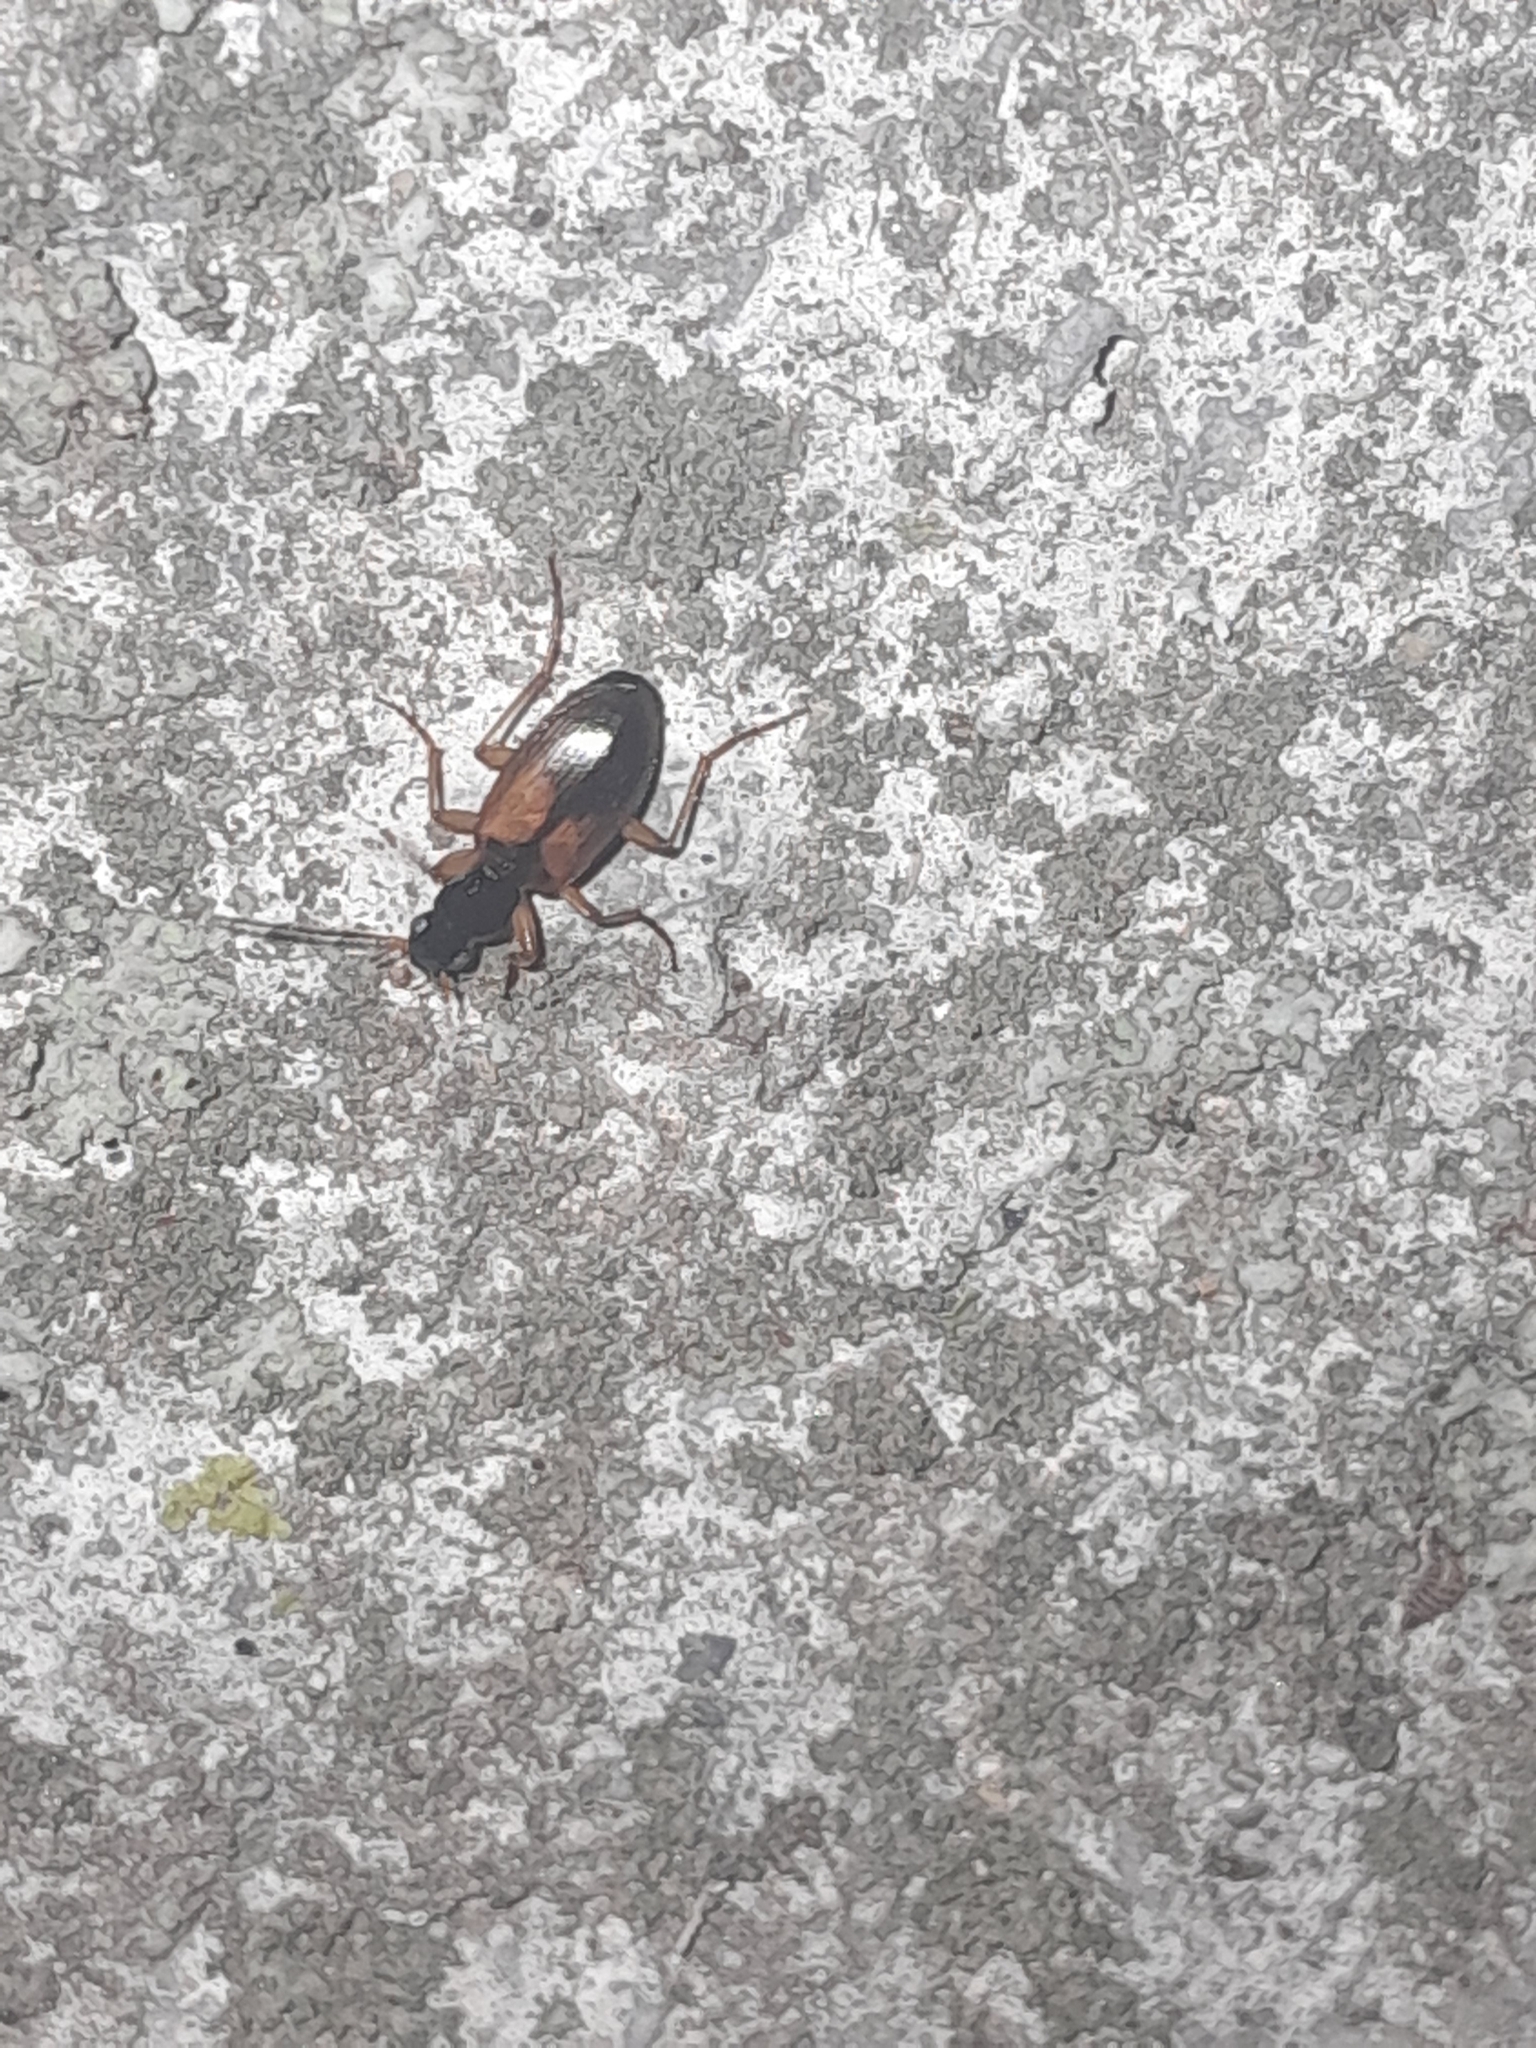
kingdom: Animalia
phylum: Arthropoda
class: Insecta
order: Coleoptera
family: Carabidae
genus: Anchomenus
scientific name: Anchomenus dorsalis
